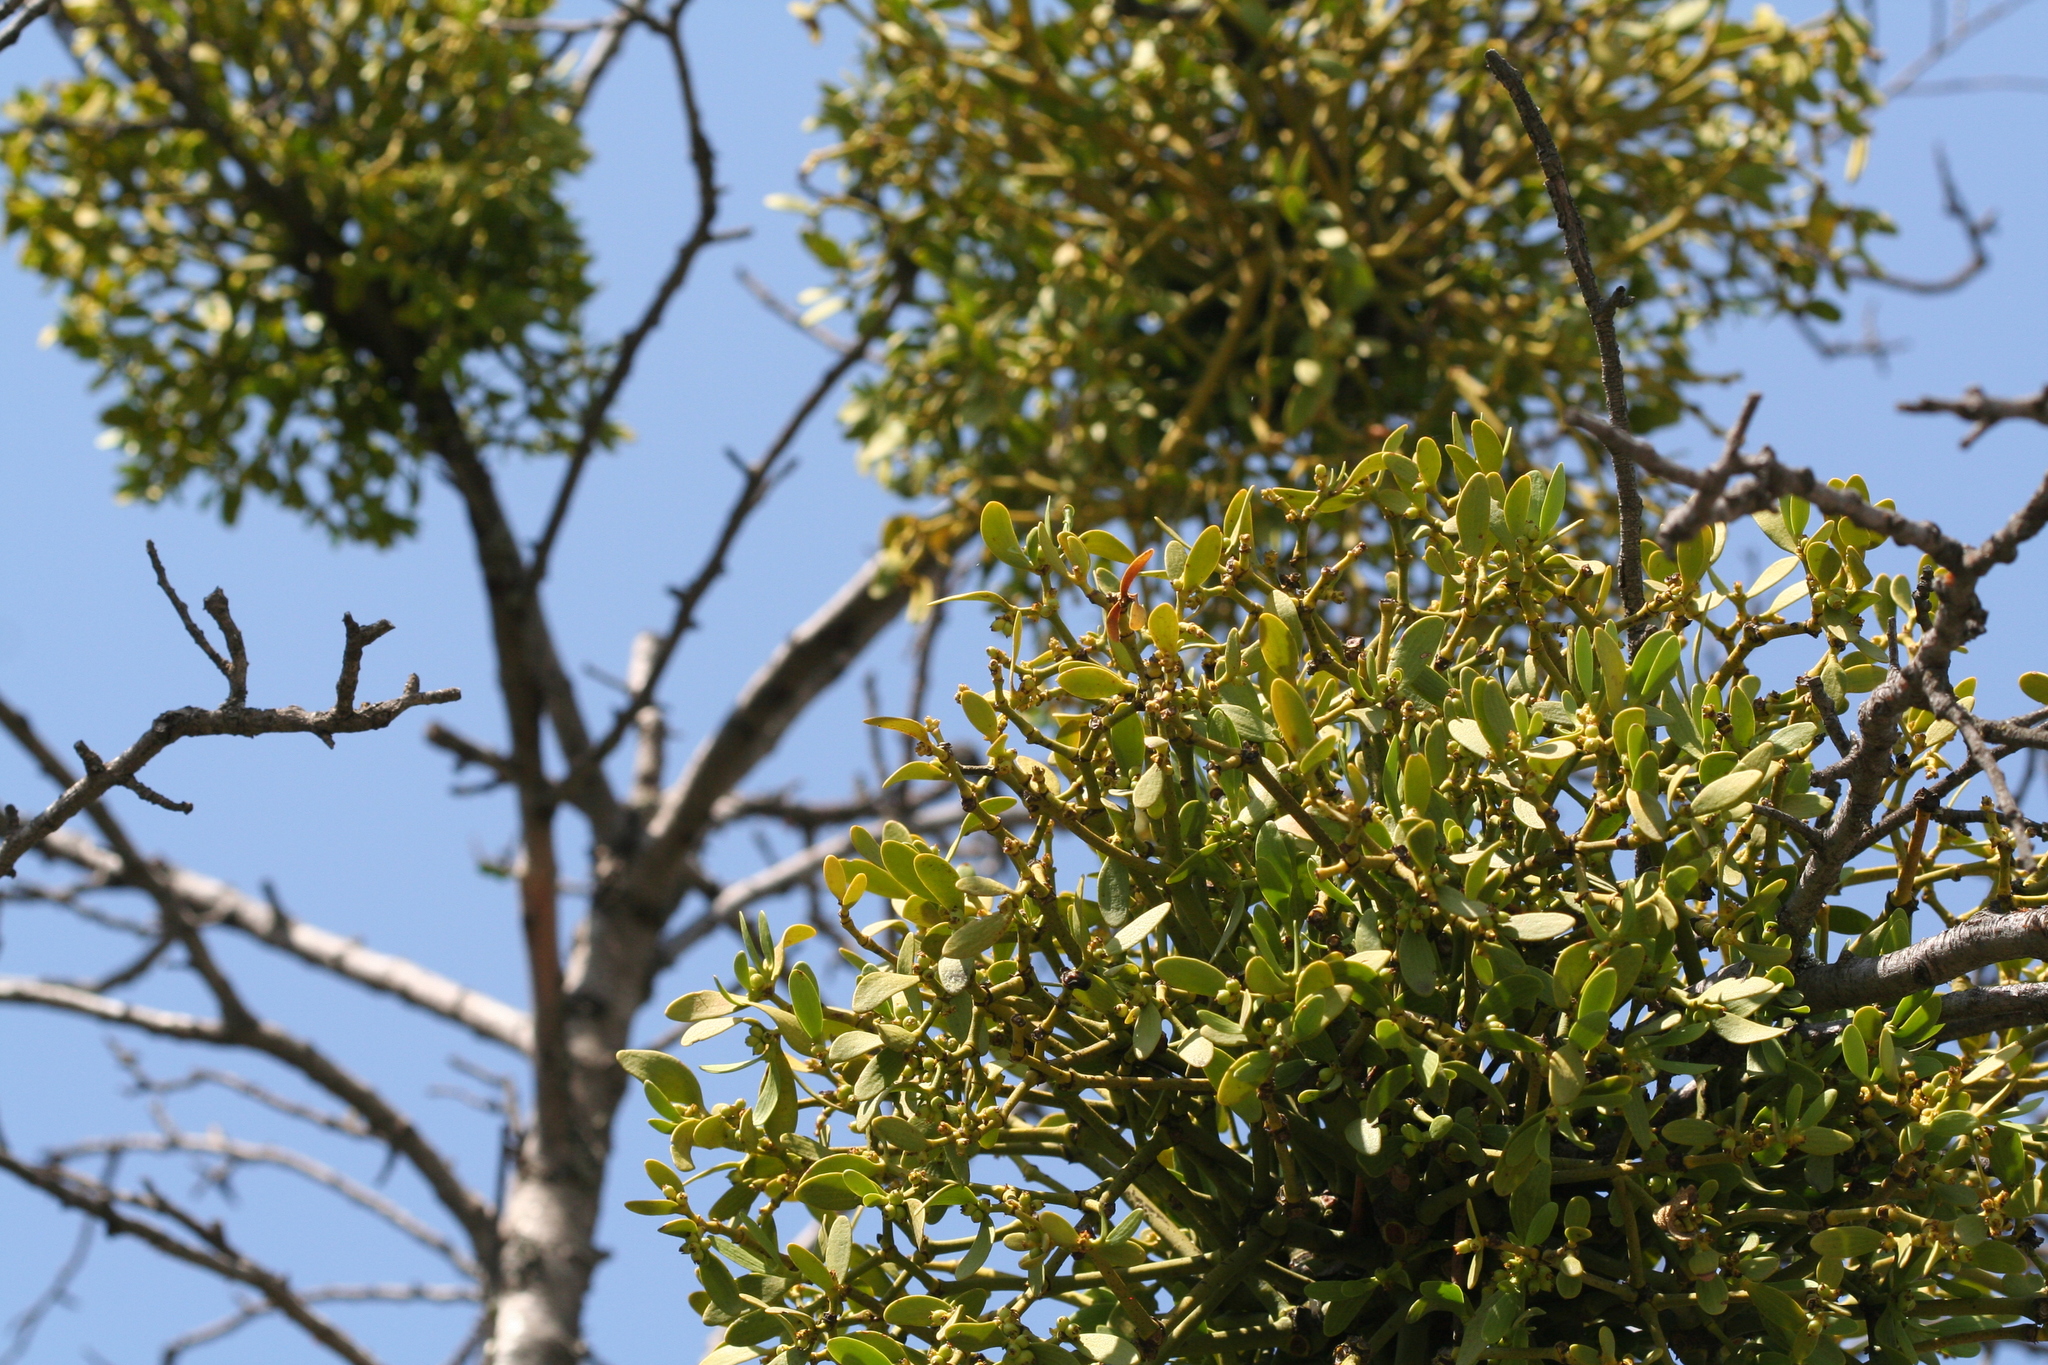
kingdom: Plantae
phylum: Tracheophyta
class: Magnoliopsida
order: Santalales
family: Viscaceae
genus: Viscum
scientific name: Viscum album
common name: Mistletoe
